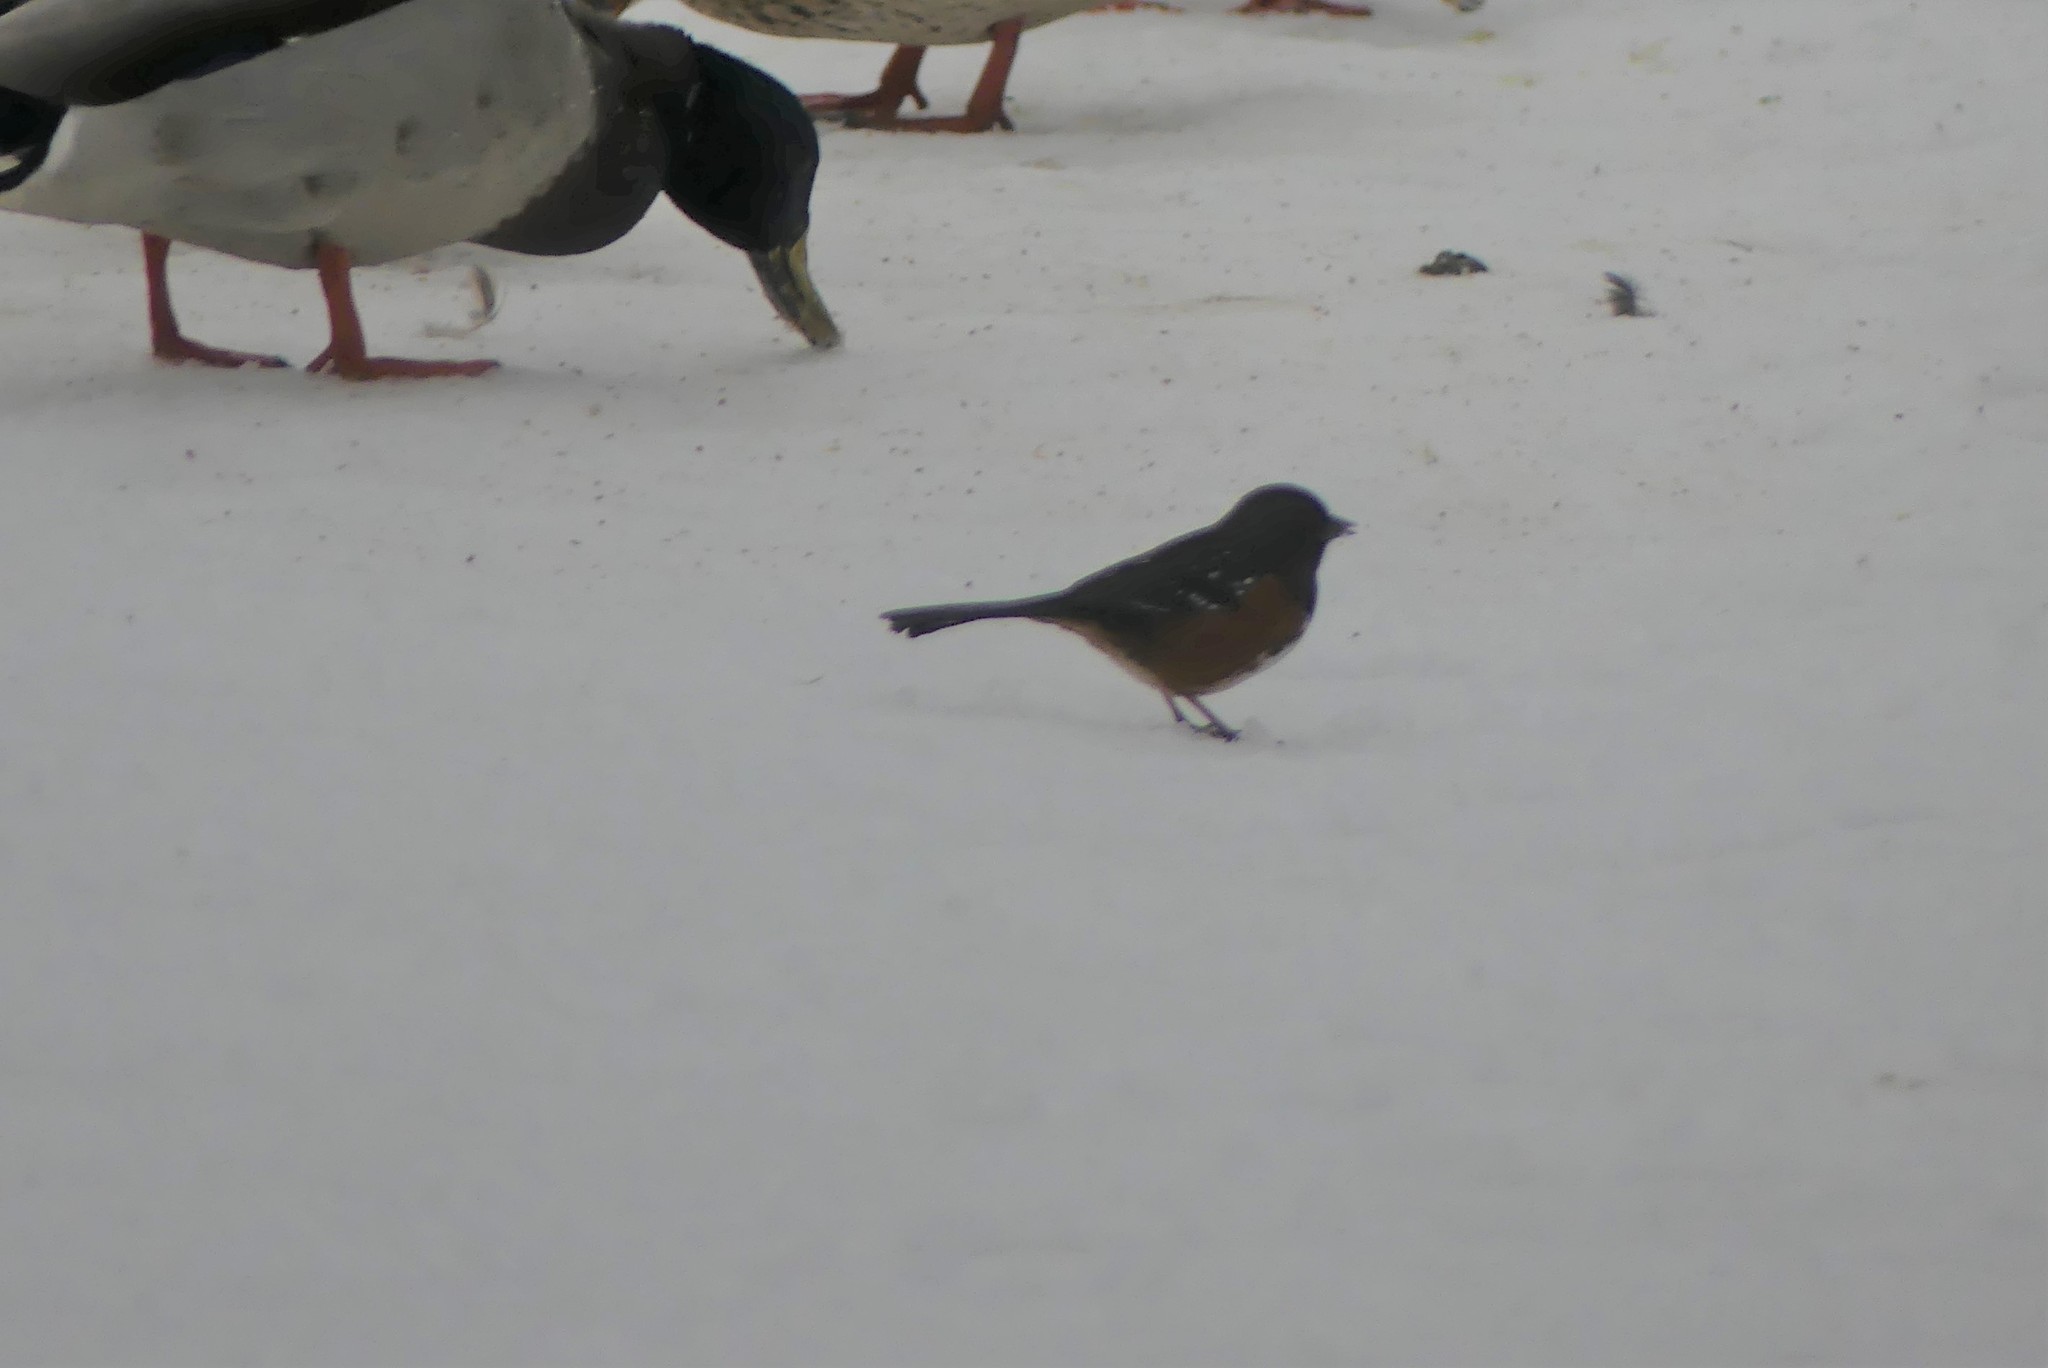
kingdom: Animalia
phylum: Chordata
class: Aves
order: Passeriformes
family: Passerellidae
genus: Pipilo
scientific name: Pipilo maculatus
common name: Spotted towhee
